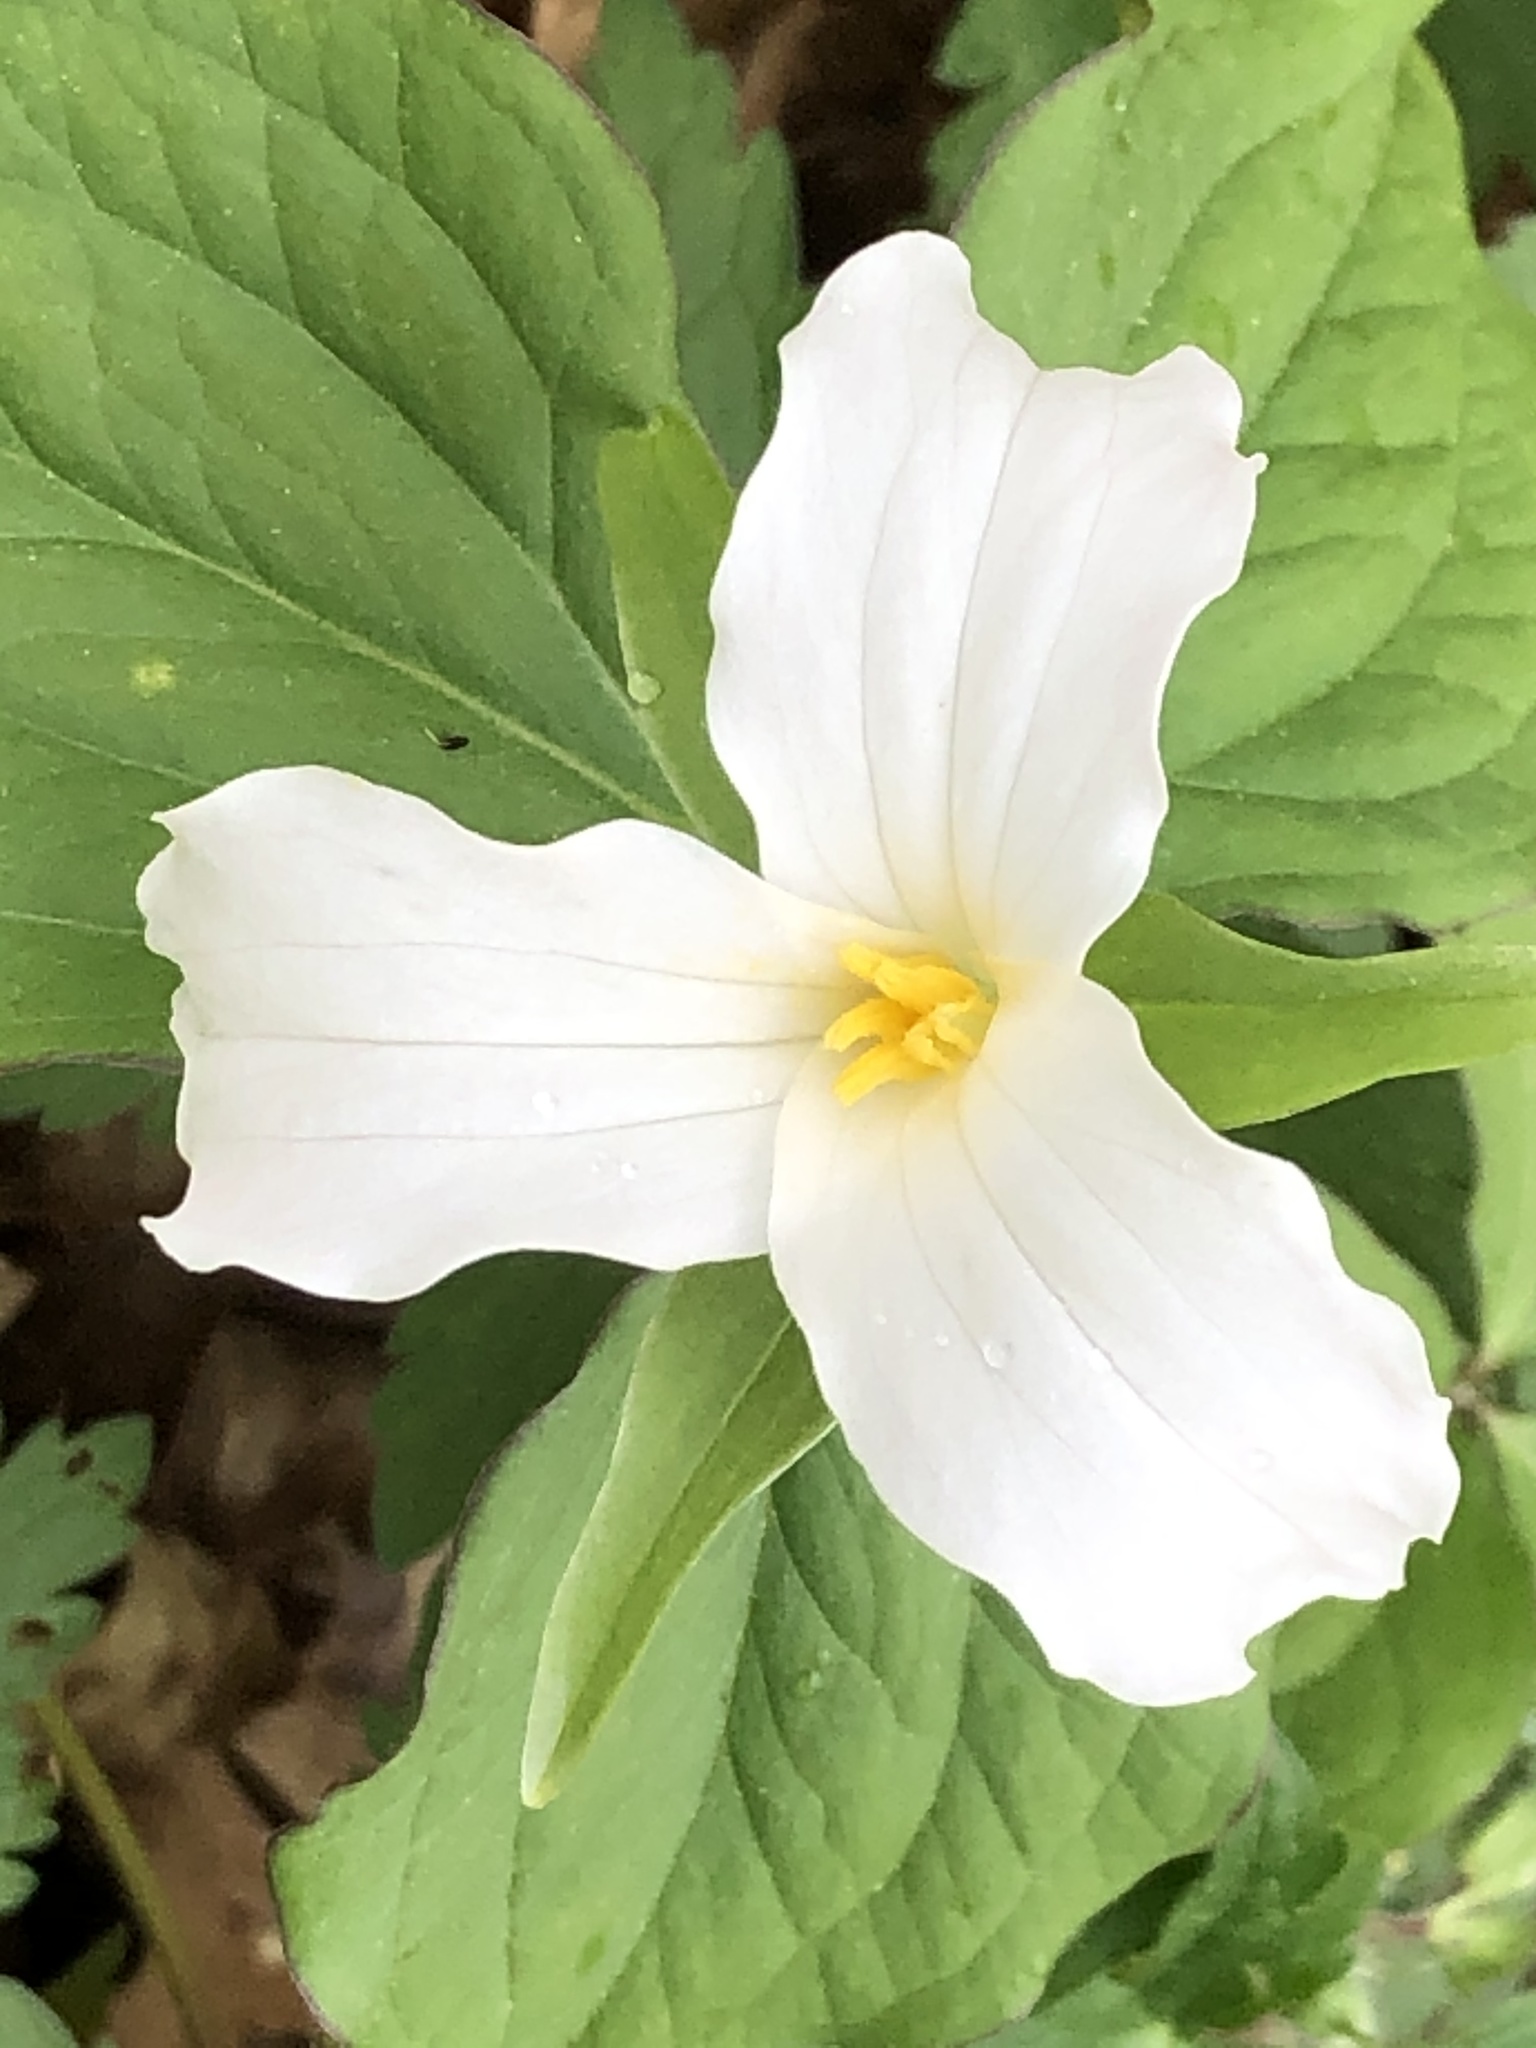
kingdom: Plantae
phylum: Tracheophyta
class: Liliopsida
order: Liliales
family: Melanthiaceae
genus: Trillium
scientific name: Trillium grandiflorum
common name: Great white trillium
